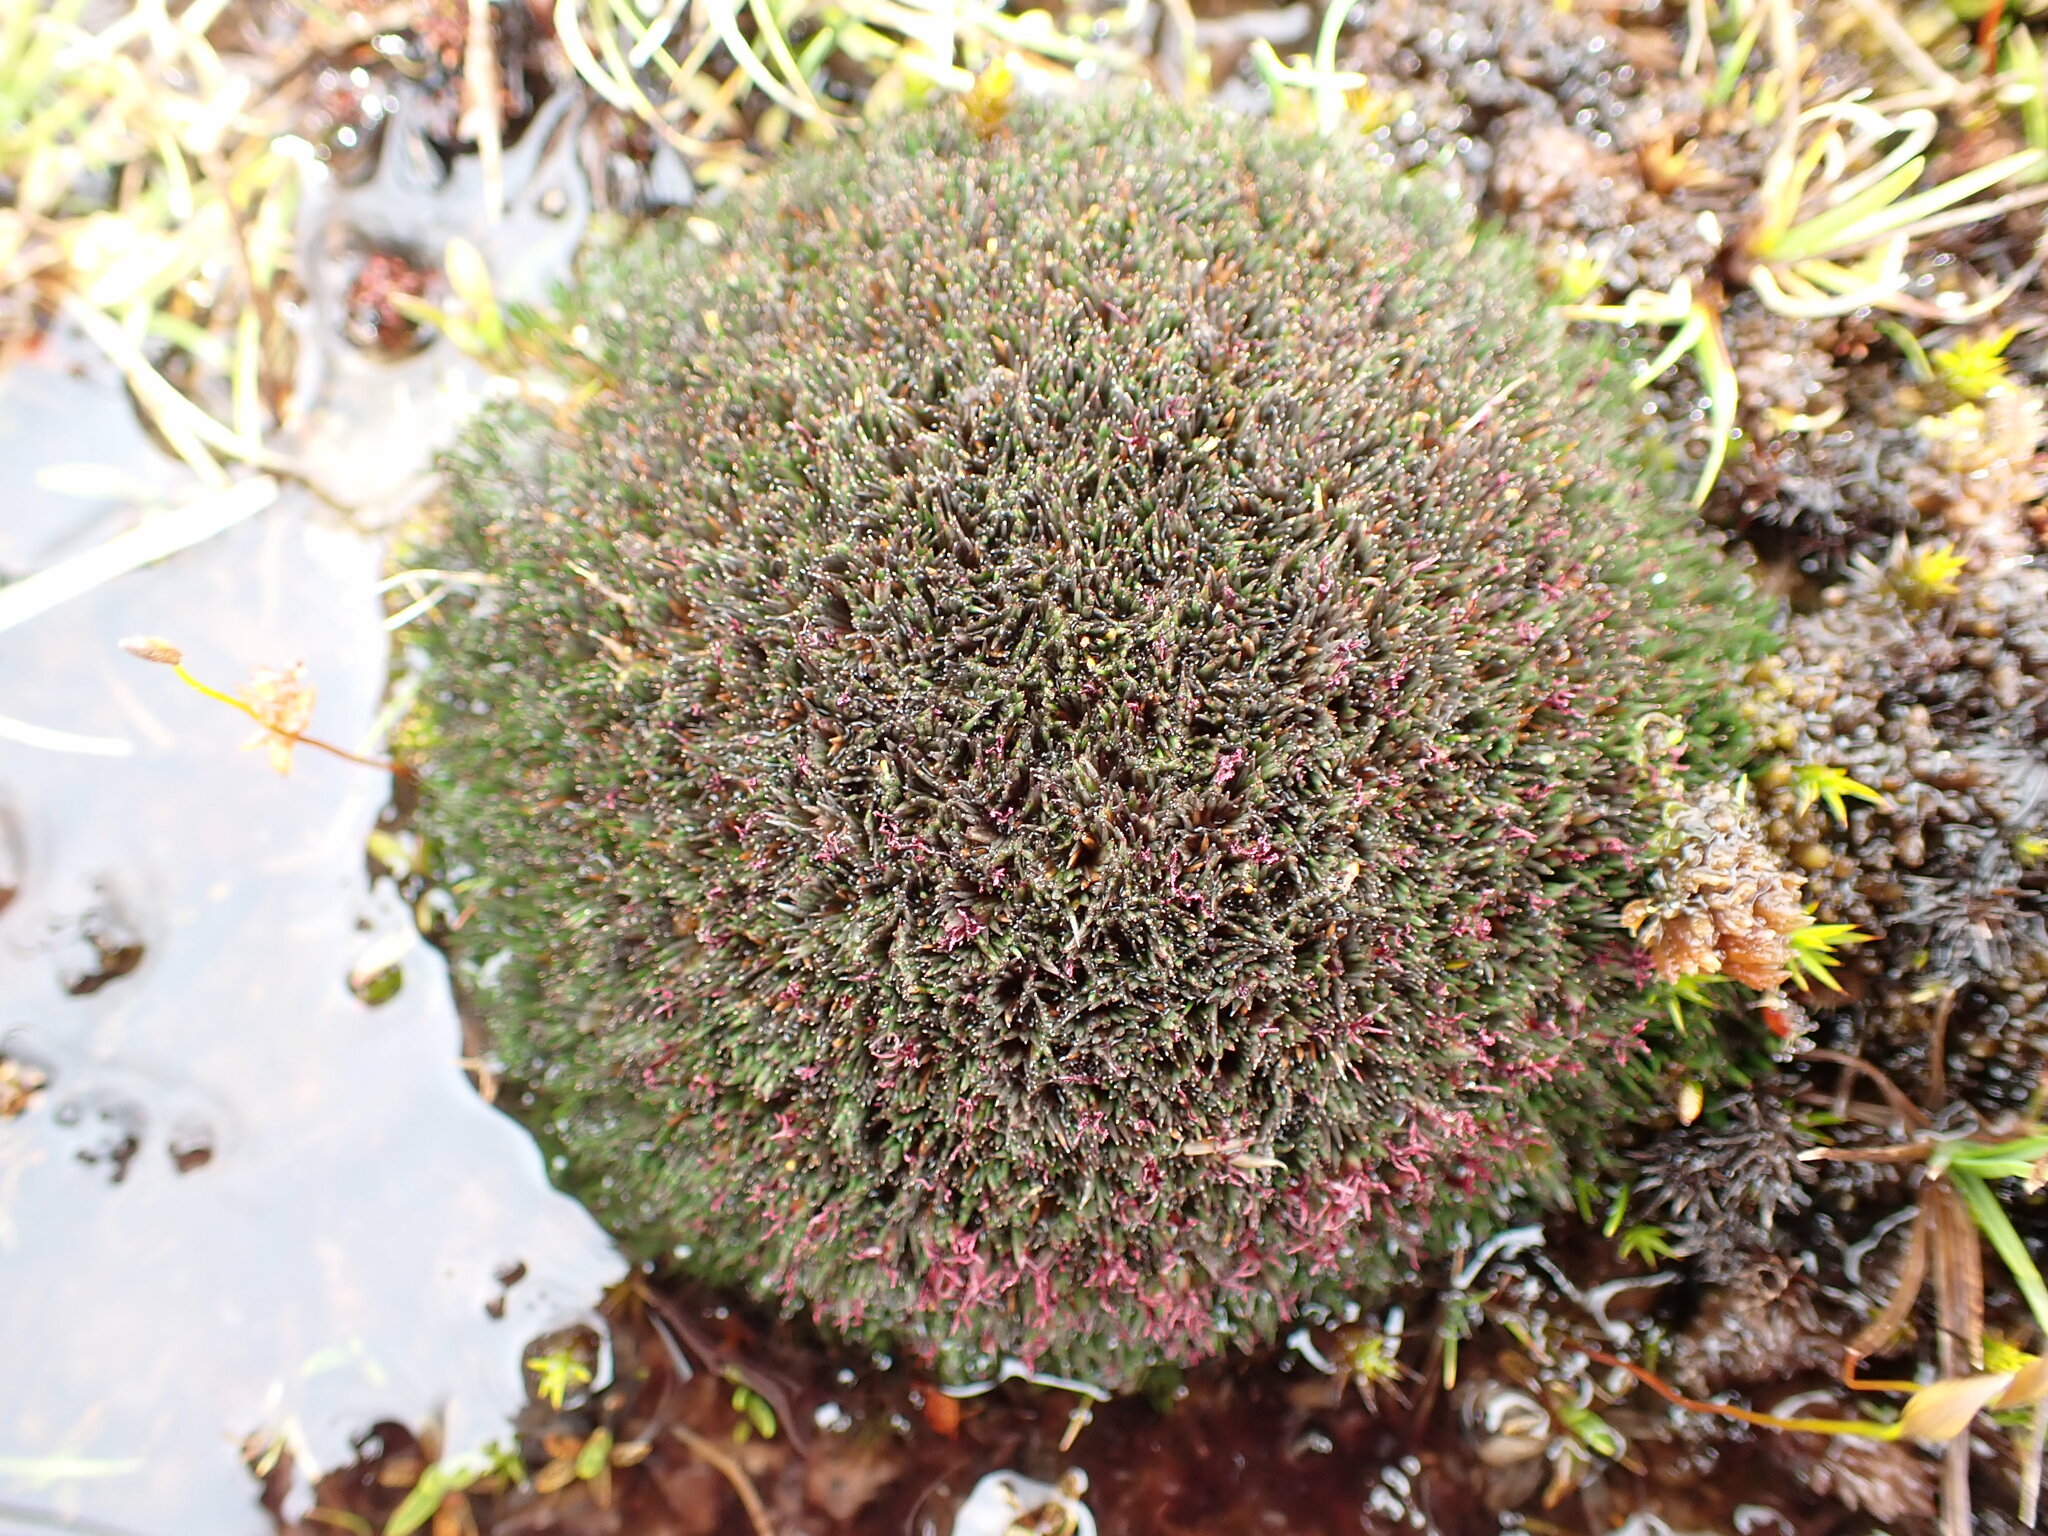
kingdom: Plantae
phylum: Tracheophyta
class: Liliopsida
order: Poales
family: Restionaceae
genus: Centrolepis
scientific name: Centrolepis pallida
